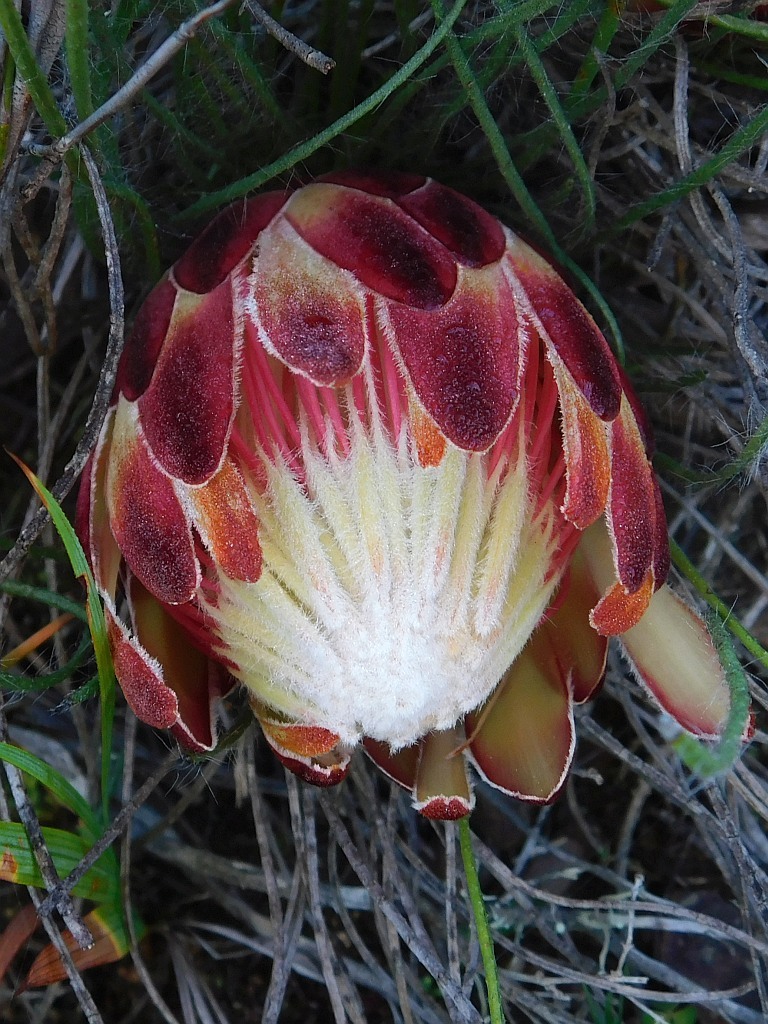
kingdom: Plantae
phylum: Tracheophyta
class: Magnoliopsida
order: Proteales
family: Proteaceae
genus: Protea
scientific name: Protea restionifolia
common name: Reed-leaf sugarbush
